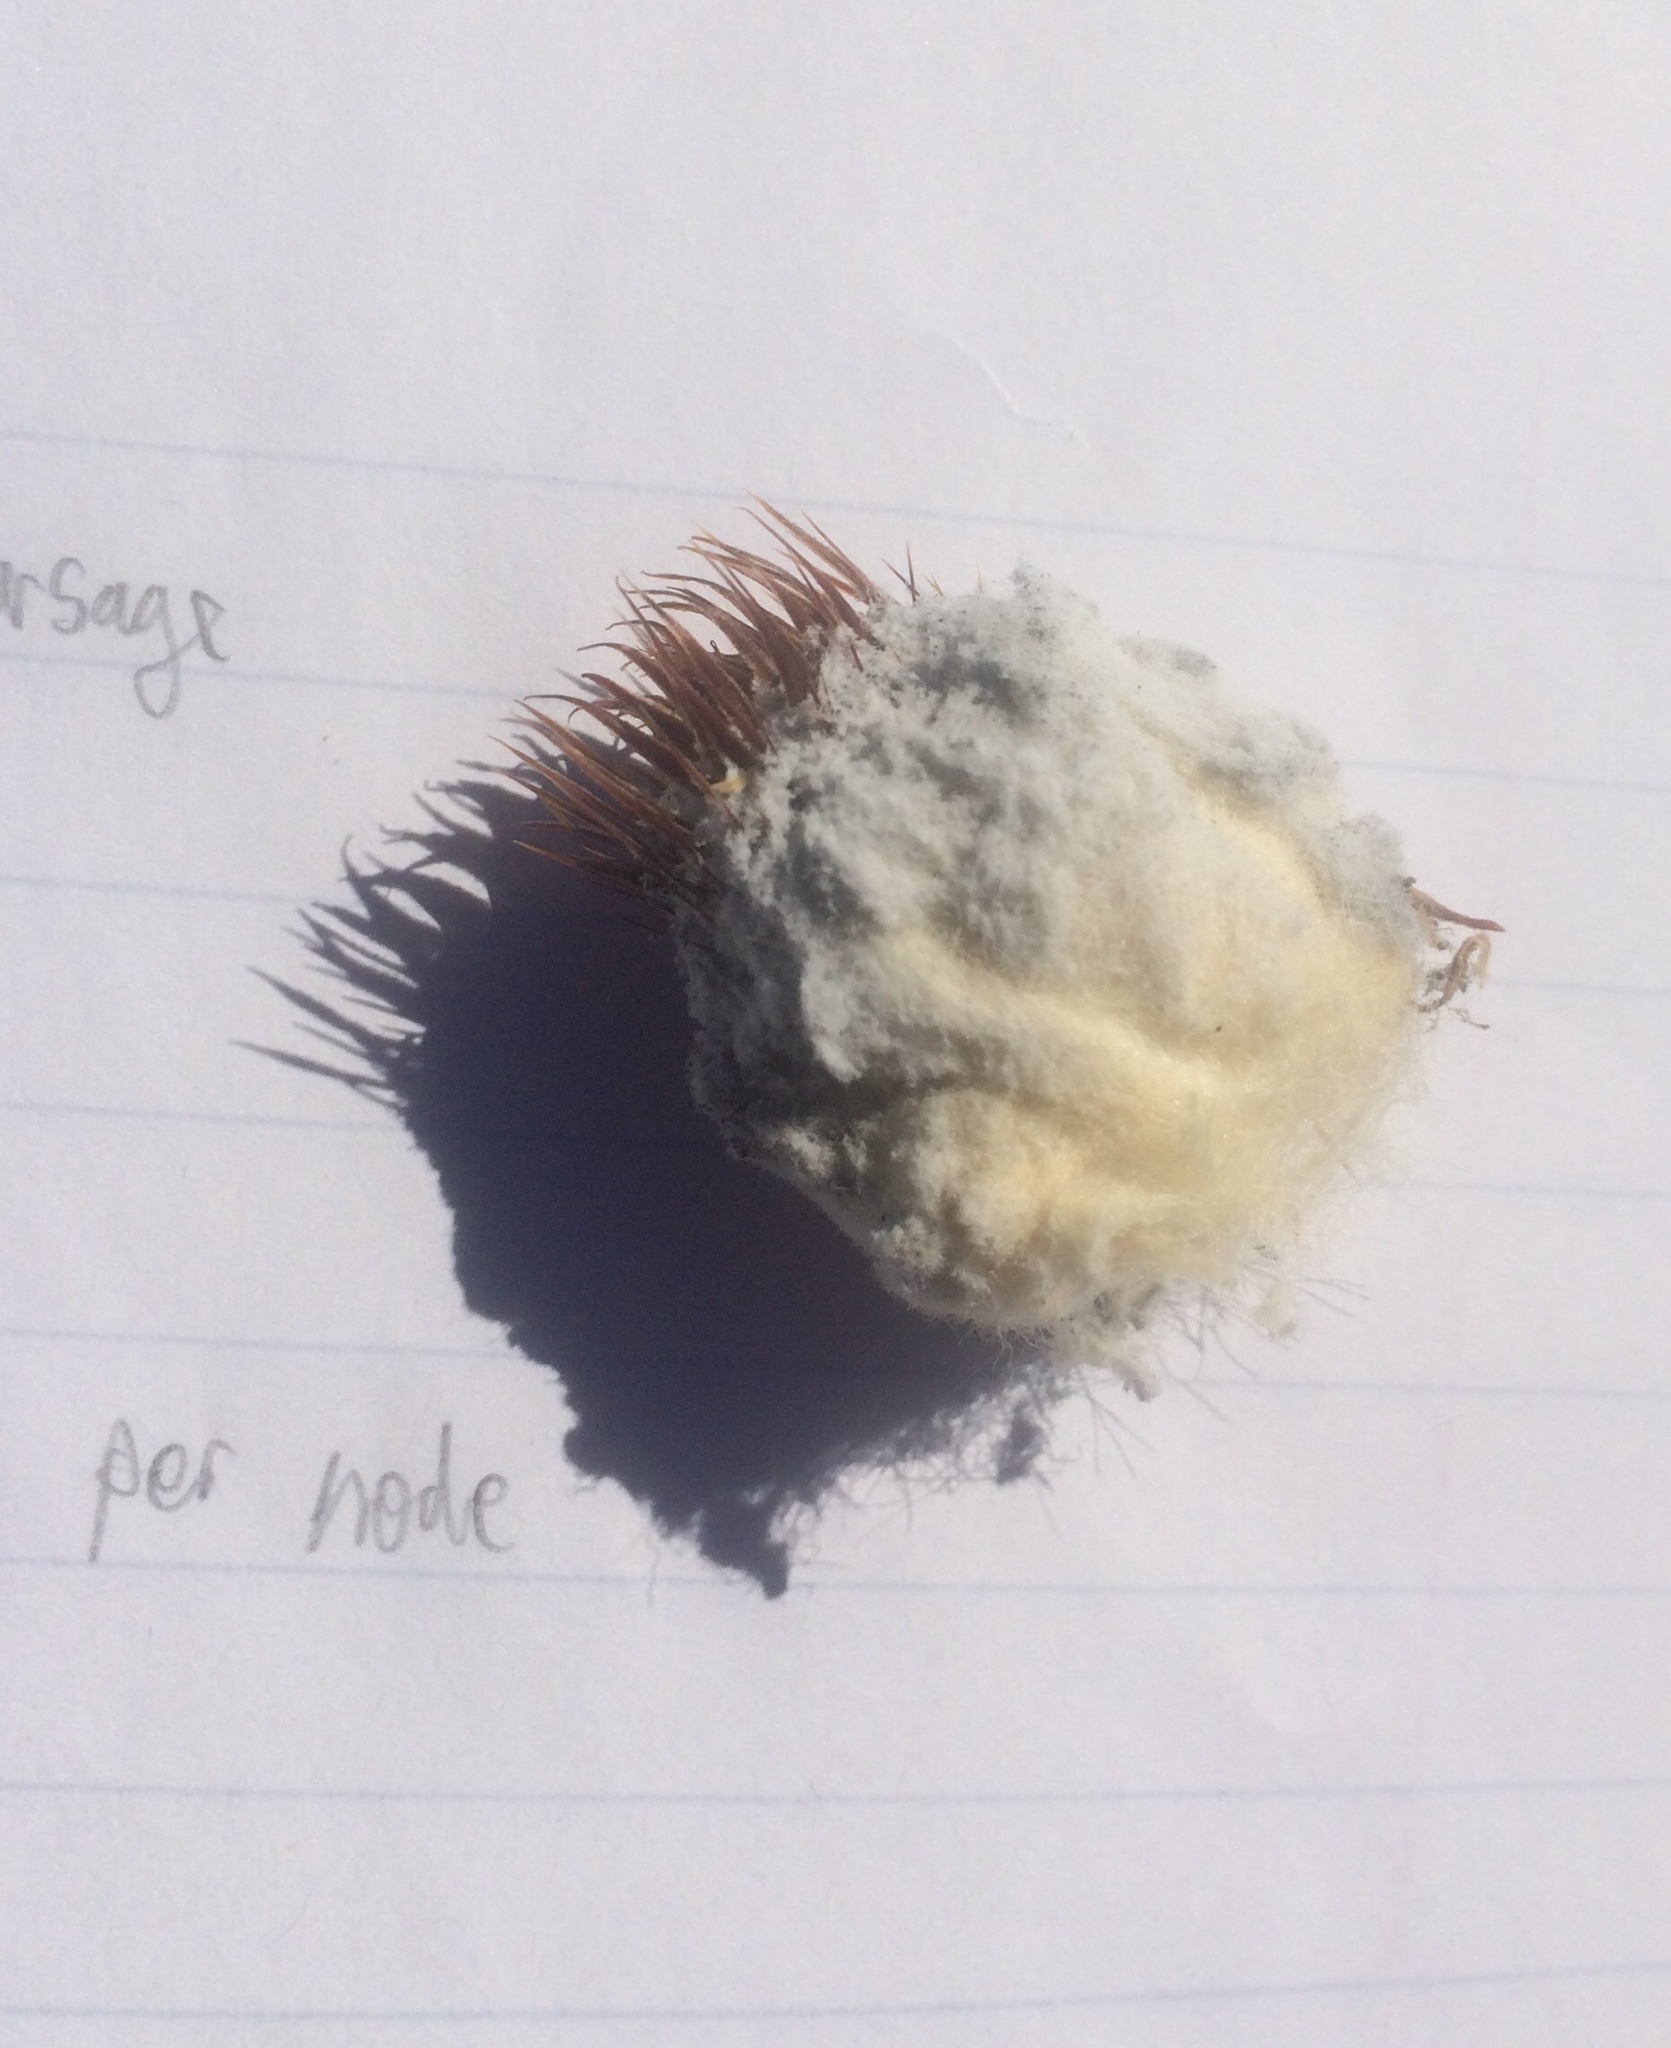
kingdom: Plantae
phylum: Tracheophyta
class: Magnoliopsida
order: Caryophyllales
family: Cactaceae
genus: Echinocactus
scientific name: Echinocactus polycephalus
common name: Cottontop cactus
